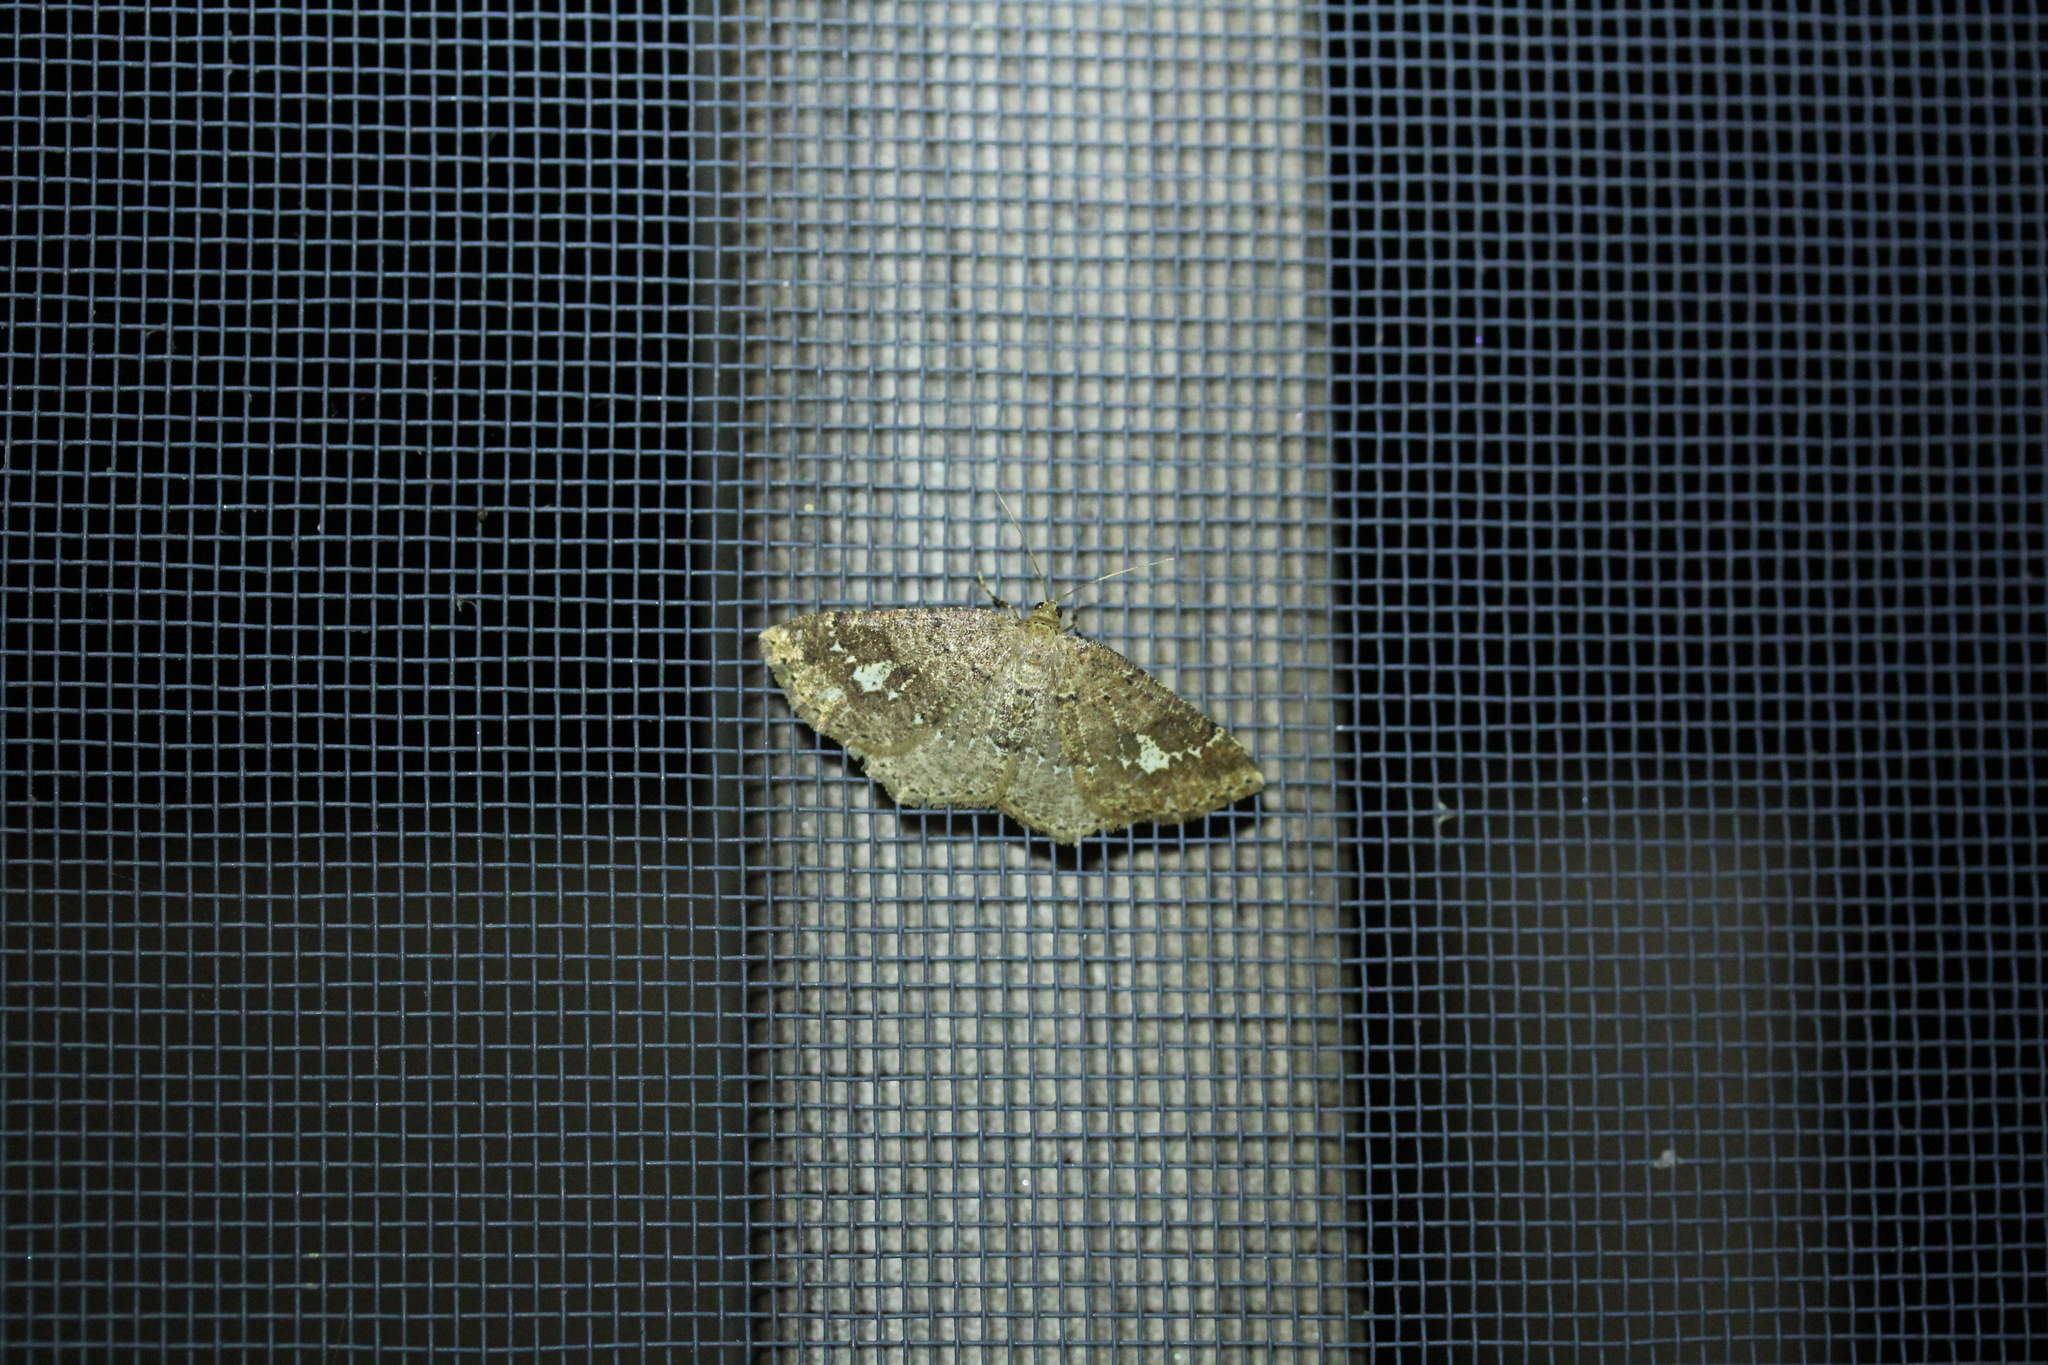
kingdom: Animalia
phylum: Arthropoda
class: Insecta
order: Lepidoptera
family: Geometridae
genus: Homochlodes
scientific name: Homochlodes fritillaria
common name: Pale homochlodes
